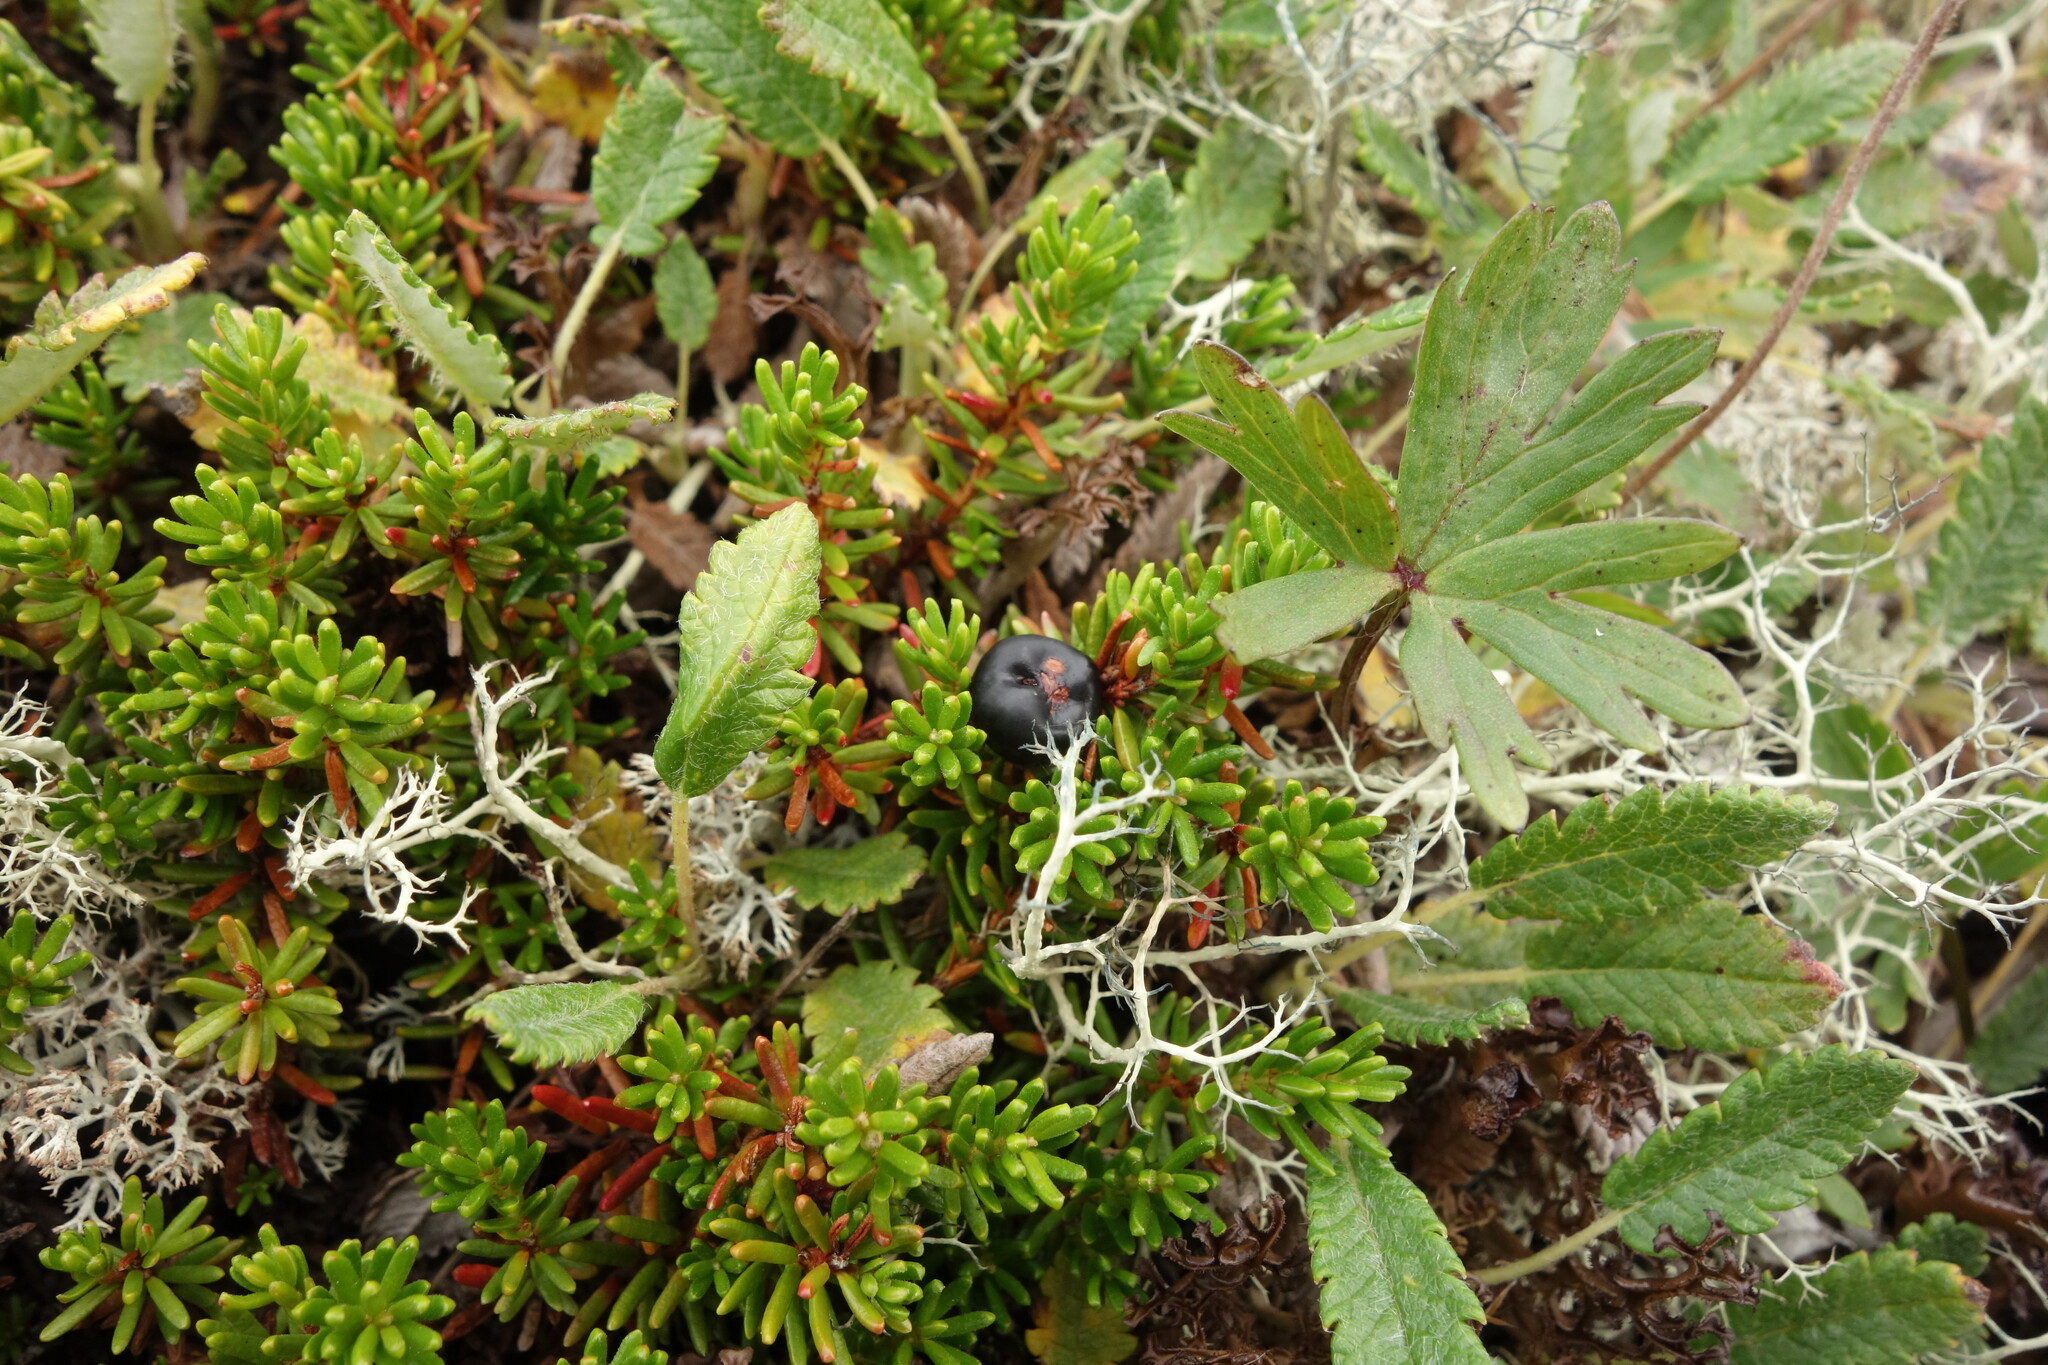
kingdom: Plantae
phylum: Tracheophyta
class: Magnoliopsida
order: Ericales
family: Ericaceae
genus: Empetrum
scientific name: Empetrum nigrum
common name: Black crowberry
